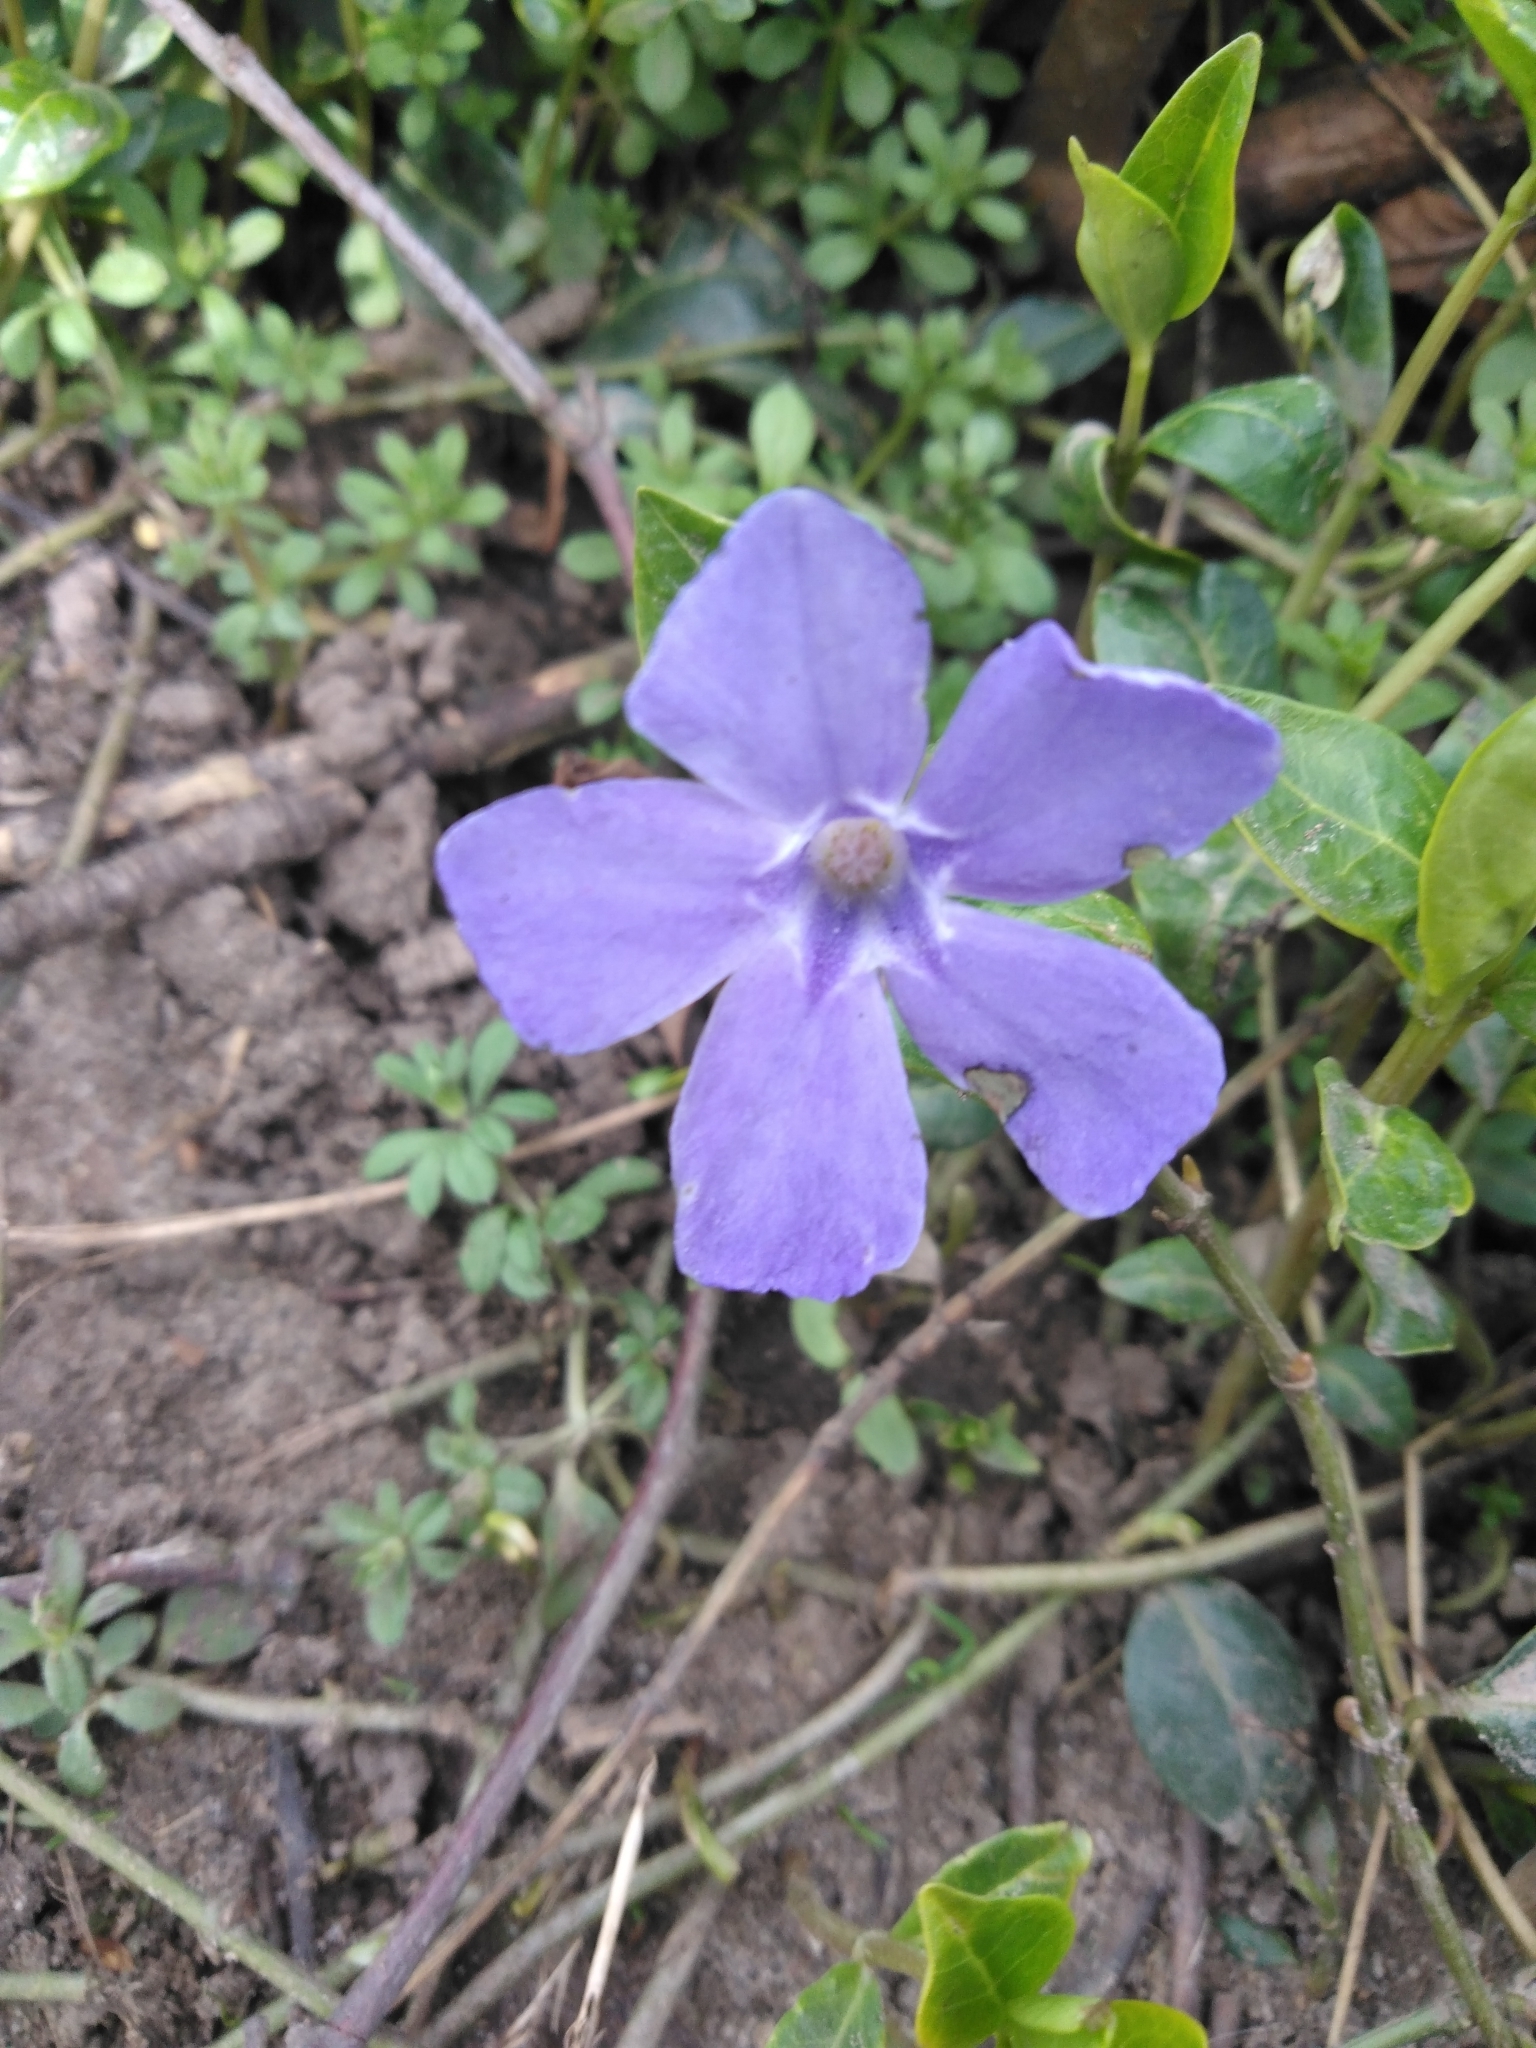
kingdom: Plantae
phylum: Tracheophyta
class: Magnoliopsida
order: Gentianales
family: Apocynaceae
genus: Vinca
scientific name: Vinca minor
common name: Lesser periwinkle
